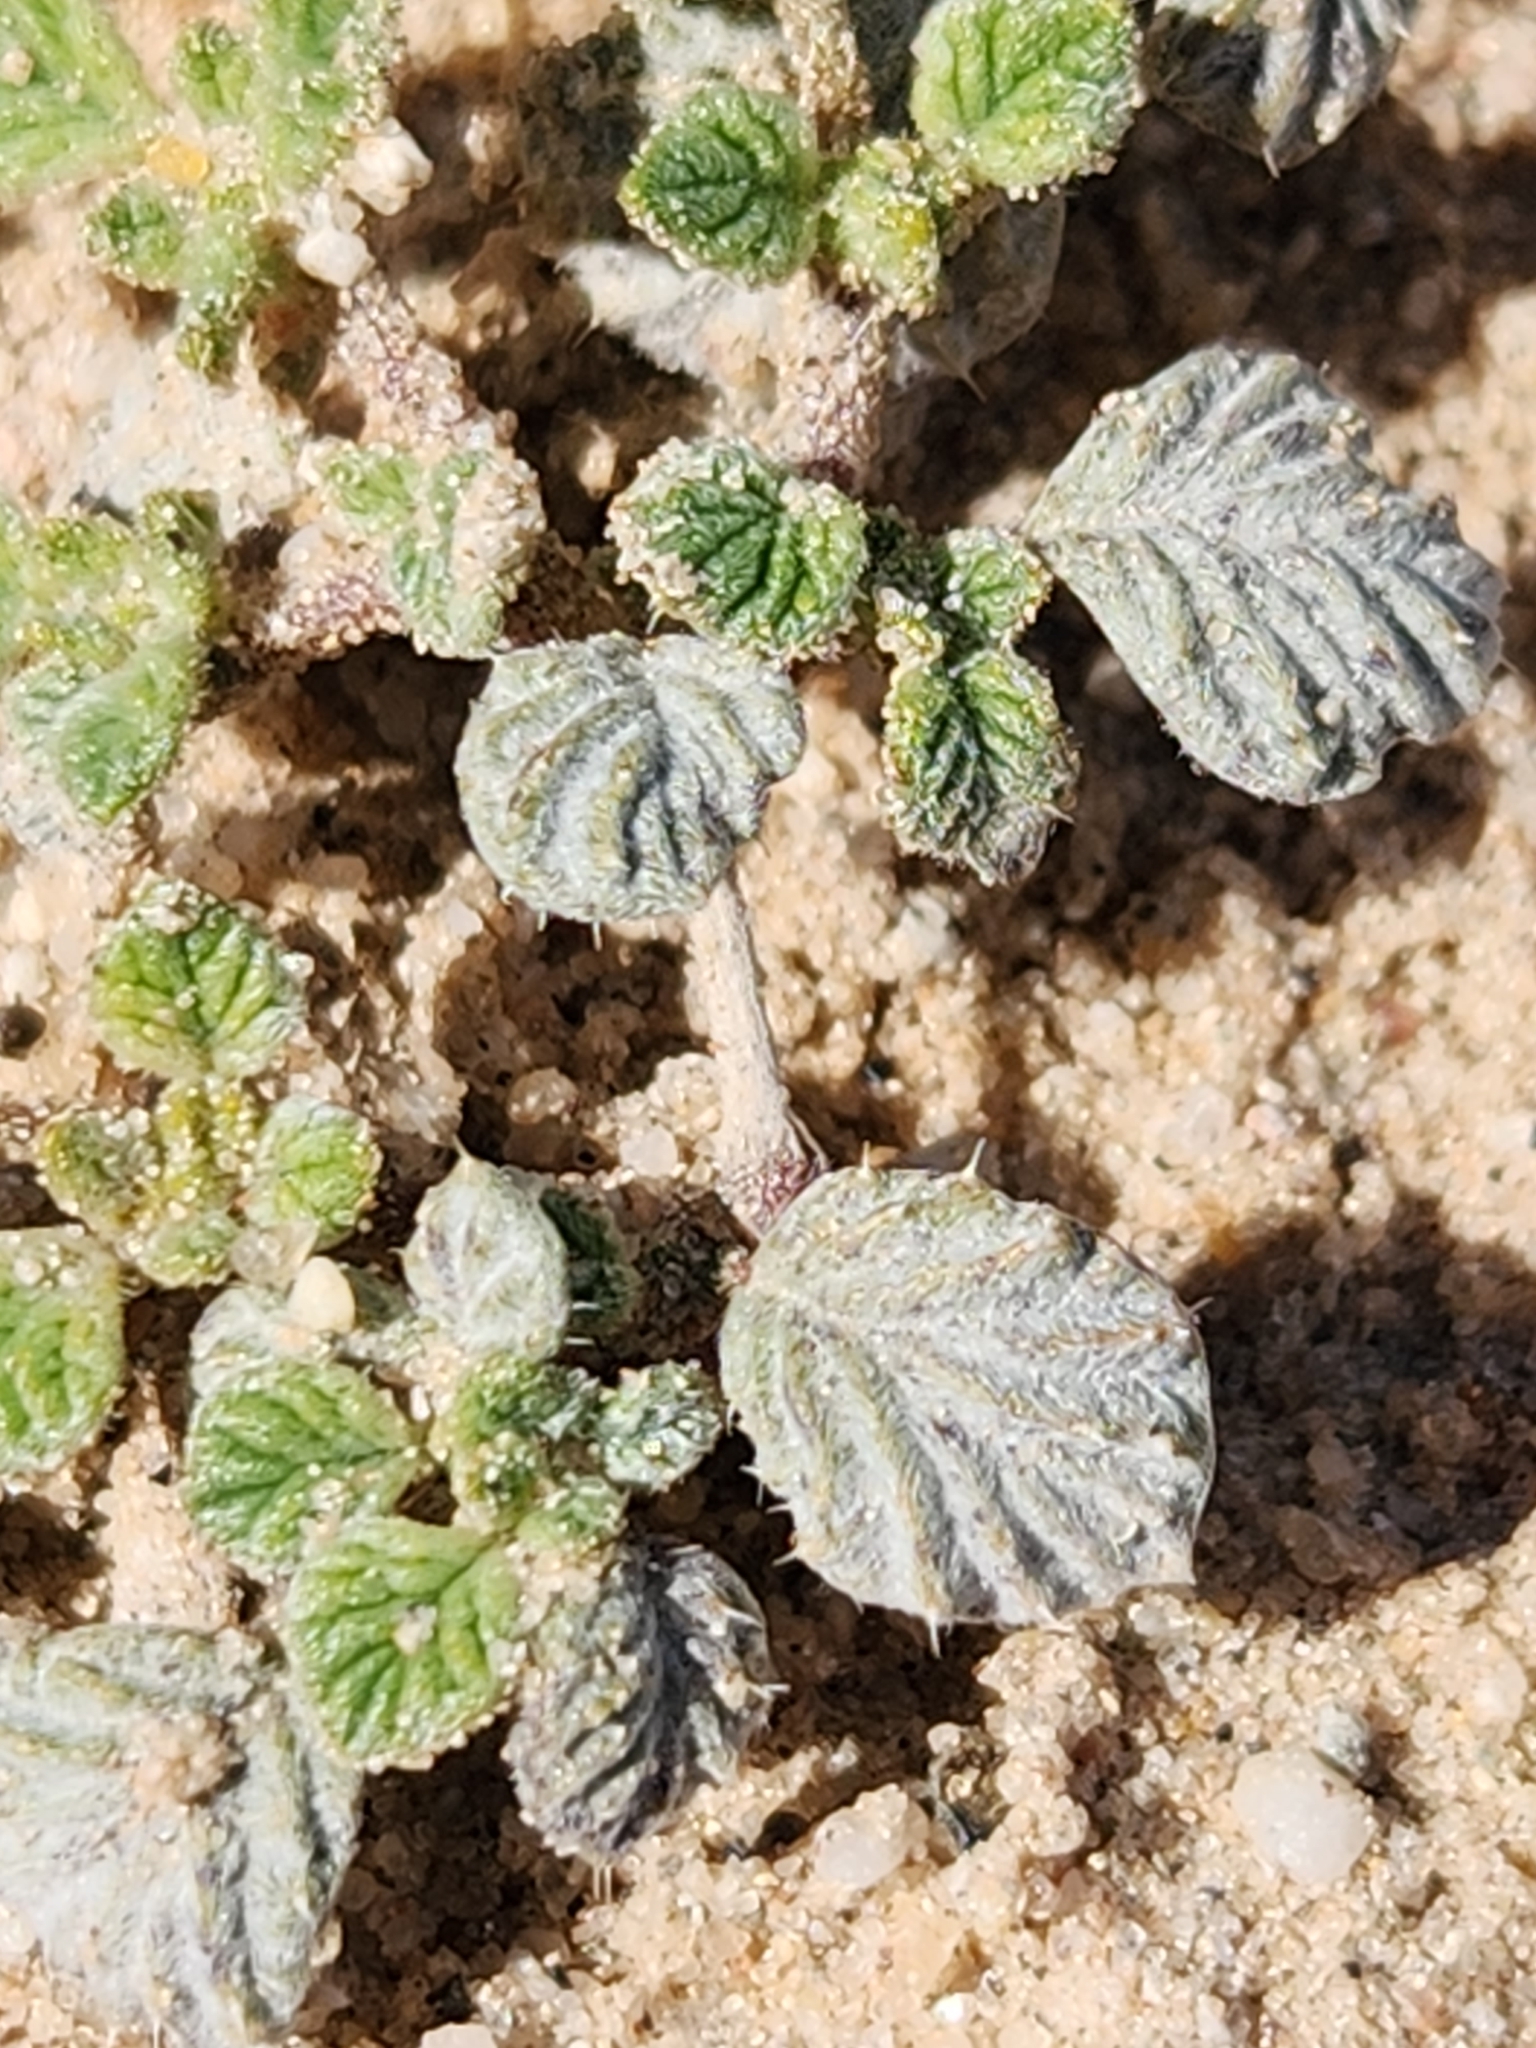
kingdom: Plantae
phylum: Tracheophyta
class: Magnoliopsida
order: Boraginales
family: Ehretiaceae
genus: Tiquilia
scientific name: Tiquilia plicata
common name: Fan-leaf tiquilia
